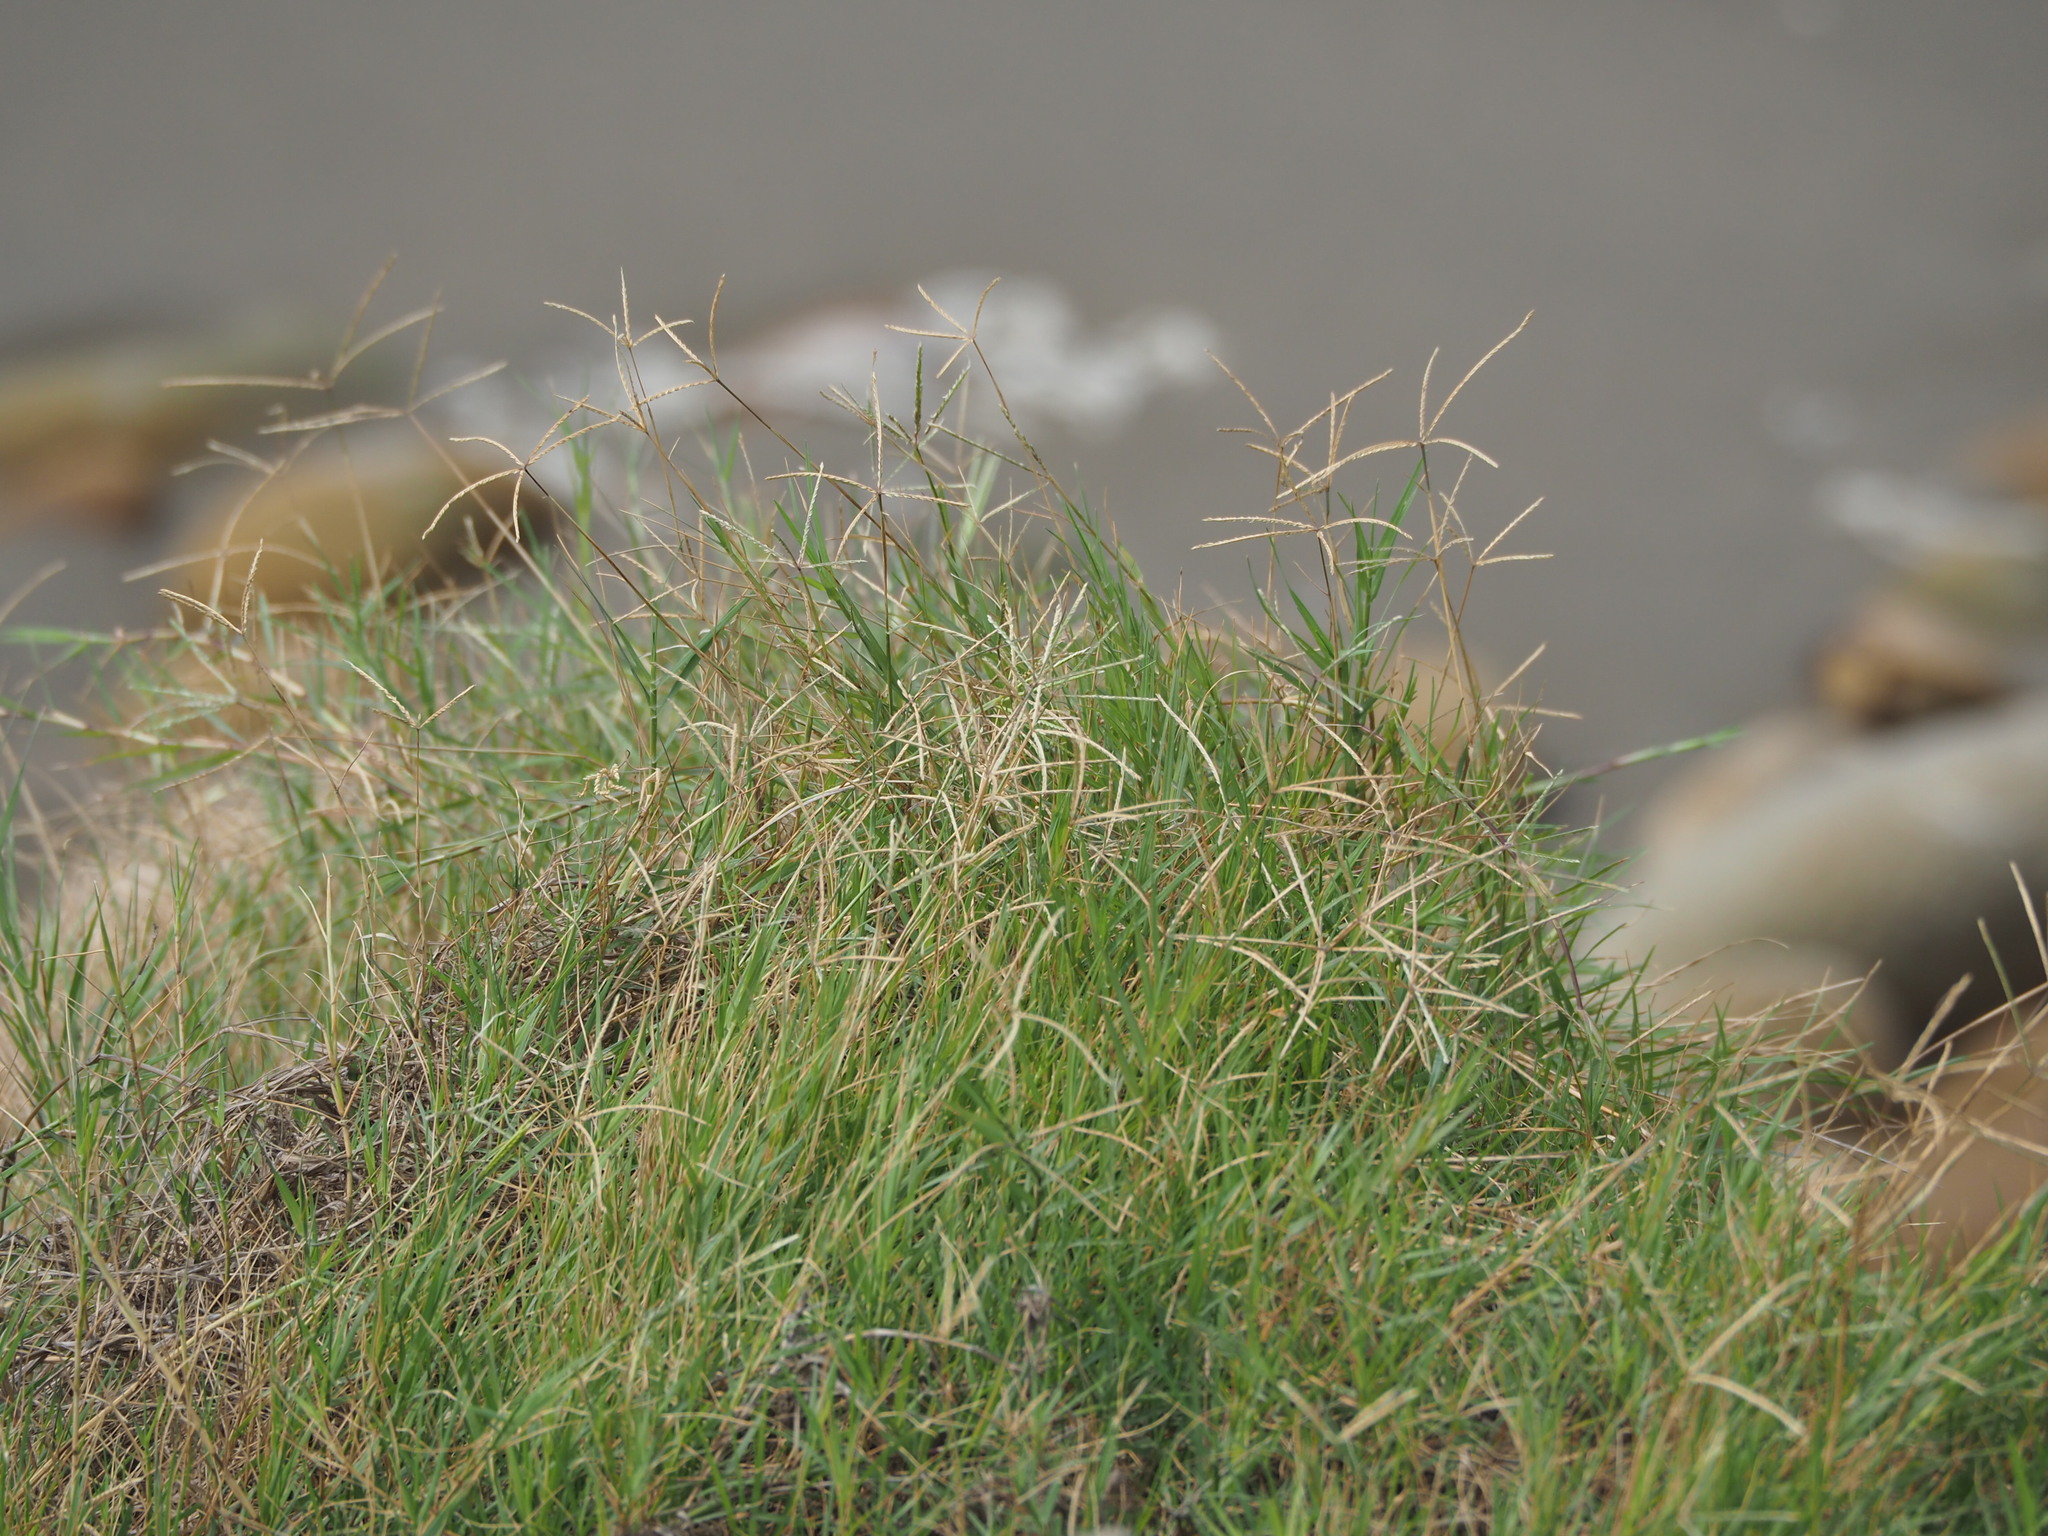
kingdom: Plantae
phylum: Tracheophyta
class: Liliopsida
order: Poales
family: Poaceae
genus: Cynodon
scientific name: Cynodon dactylon
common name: Bermuda grass
